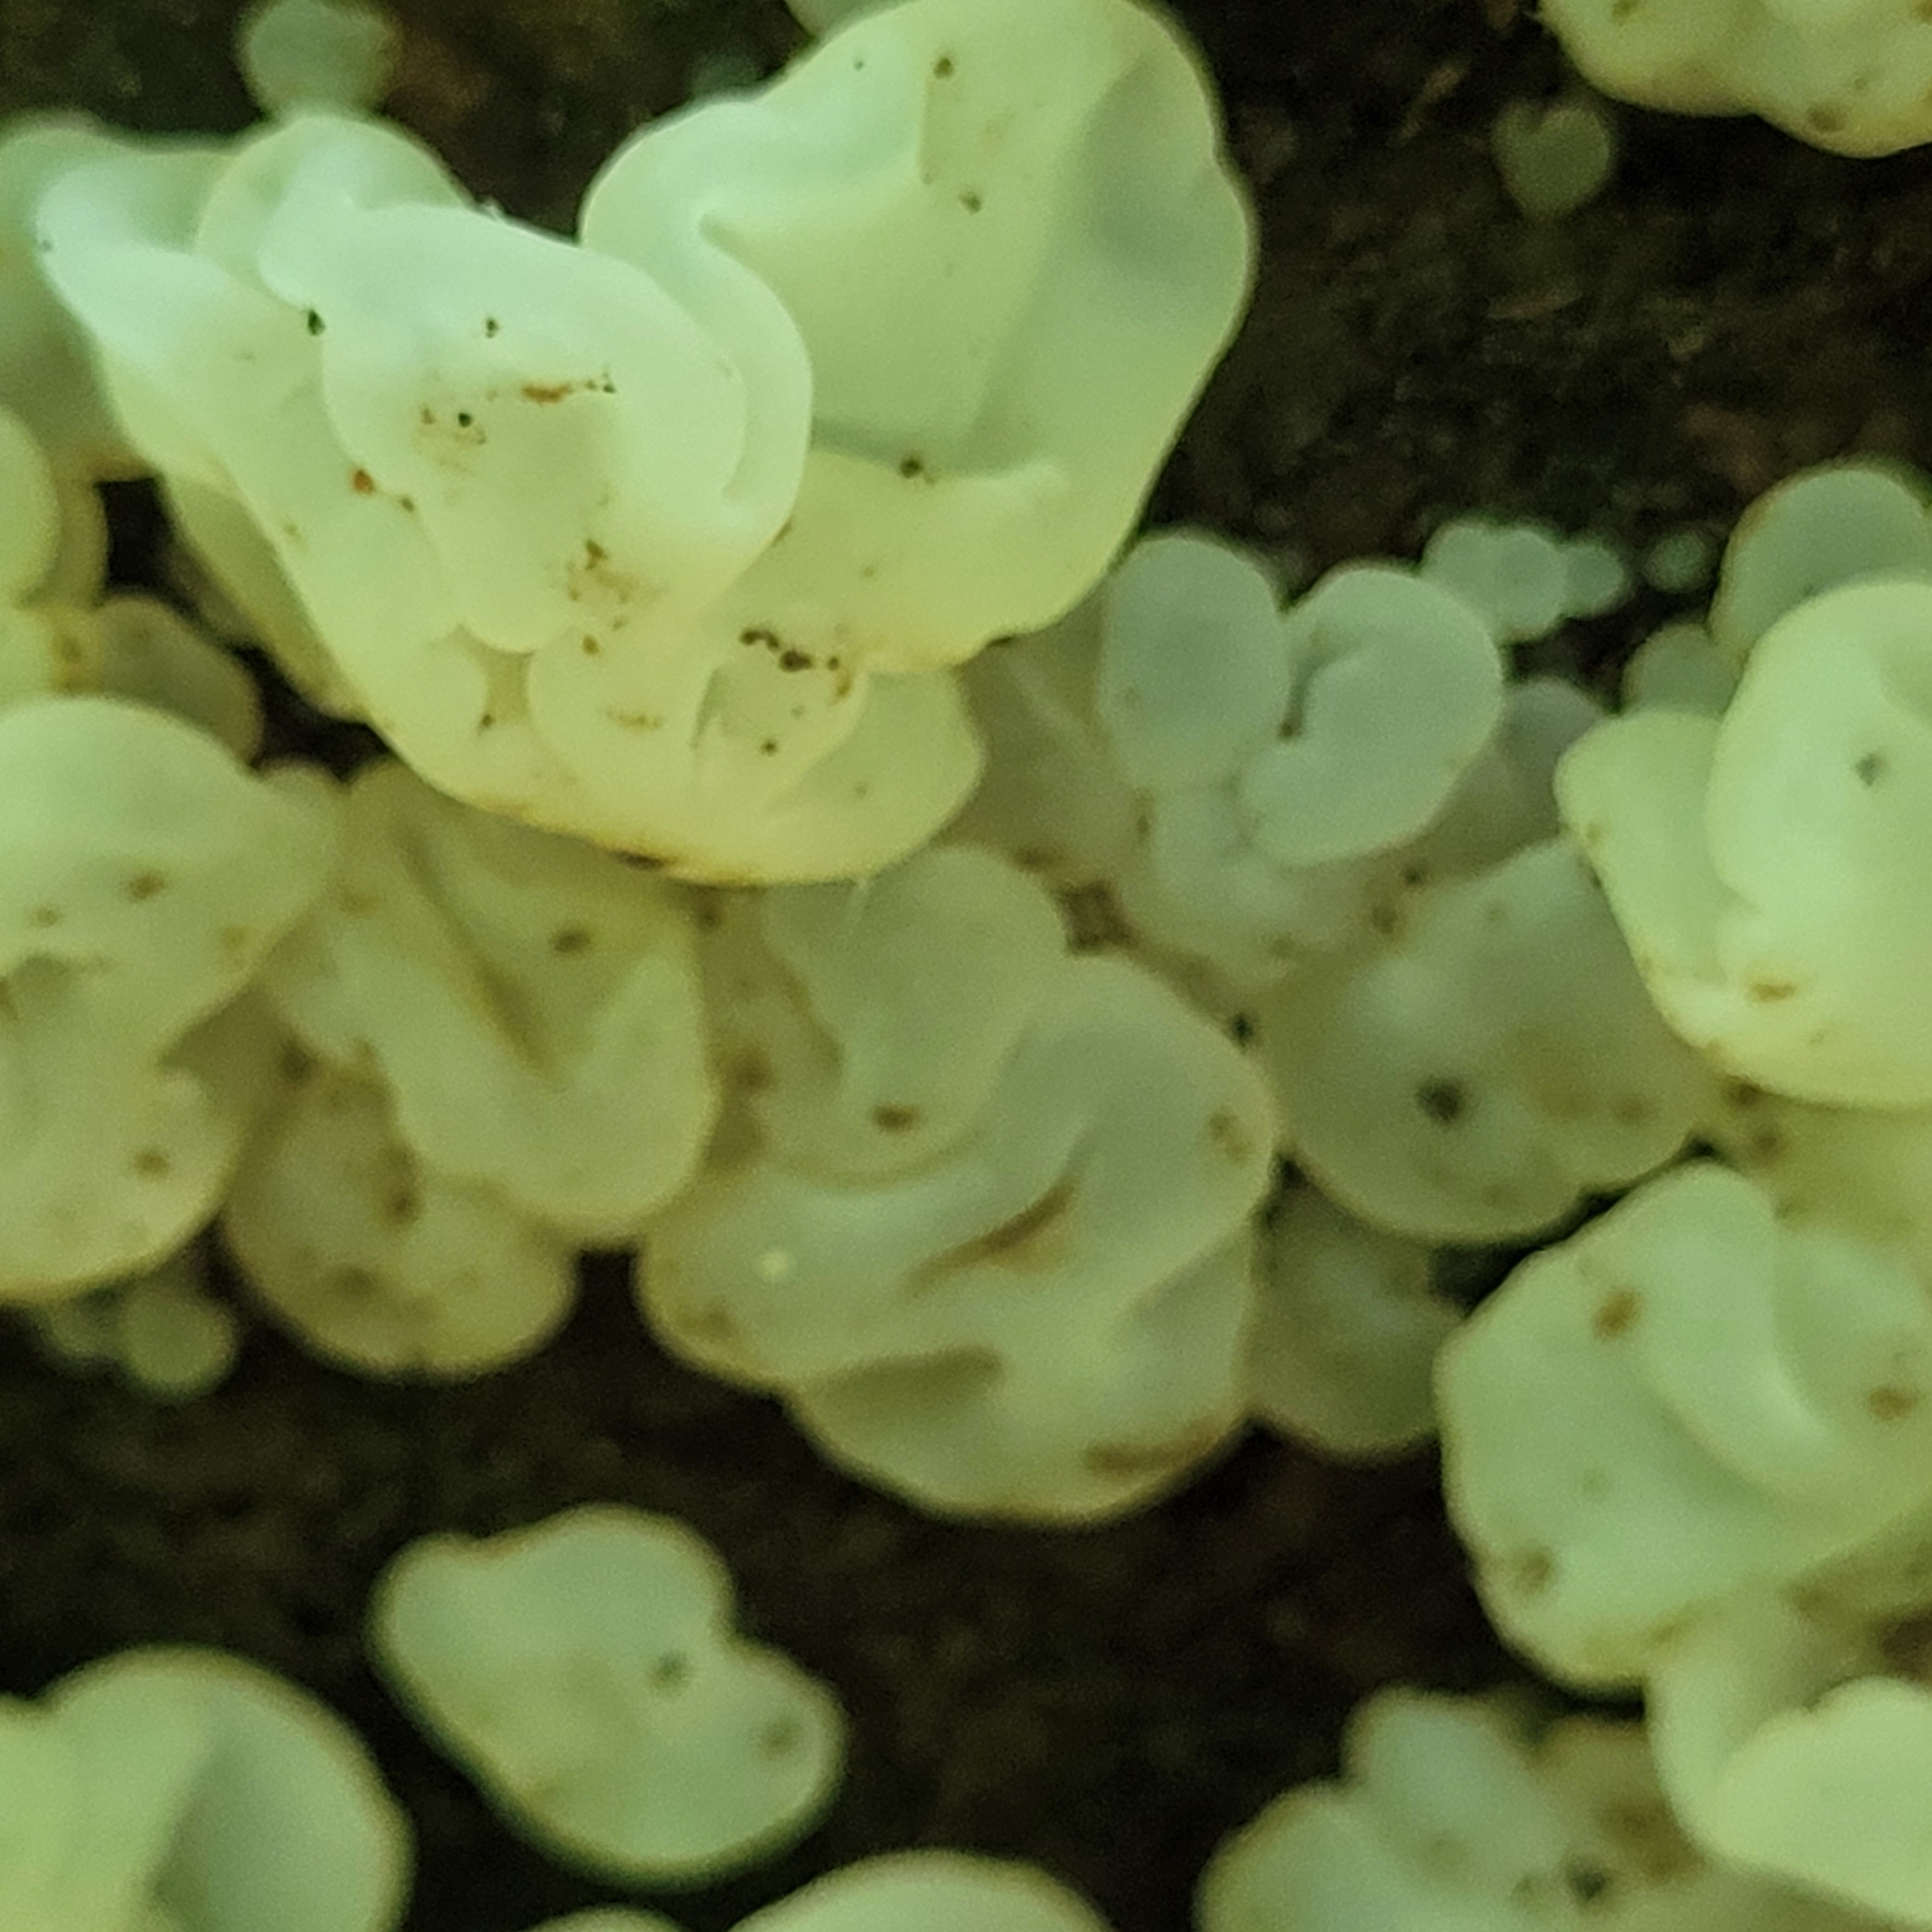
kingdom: Fungi
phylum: Basidiomycota
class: Agaricomycetes
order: Auriculariales
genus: Ductifera
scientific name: Ductifera pululahuana
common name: White jelly fungus
